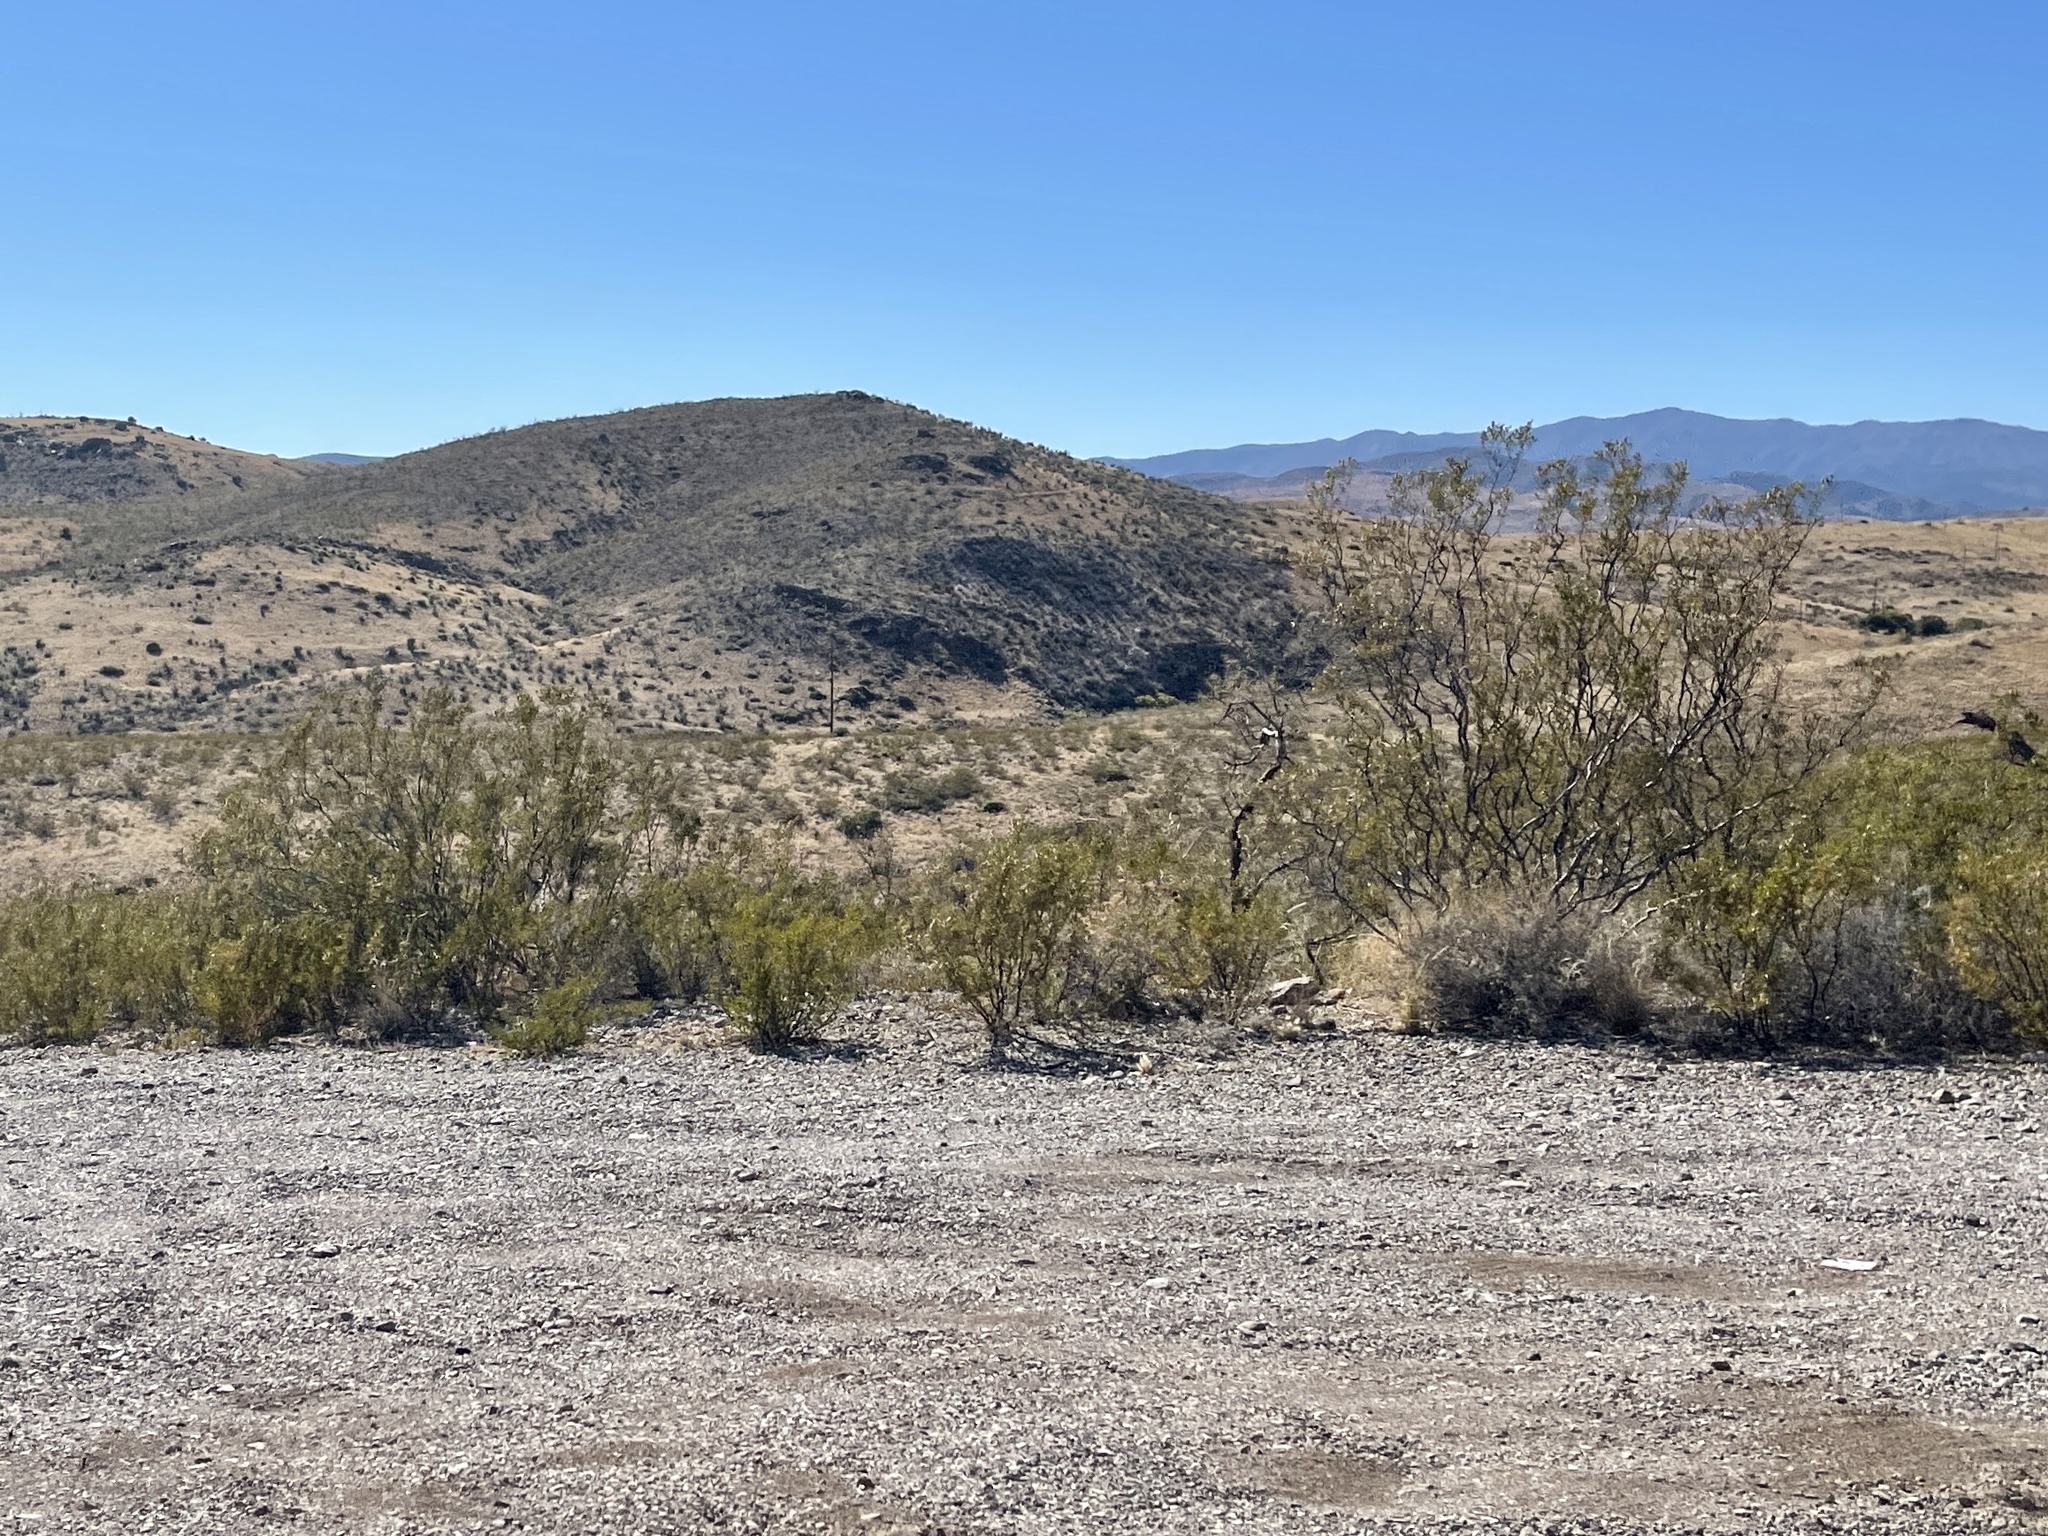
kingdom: Plantae
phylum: Tracheophyta
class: Magnoliopsida
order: Zygophyllales
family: Zygophyllaceae
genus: Larrea
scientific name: Larrea tridentata
